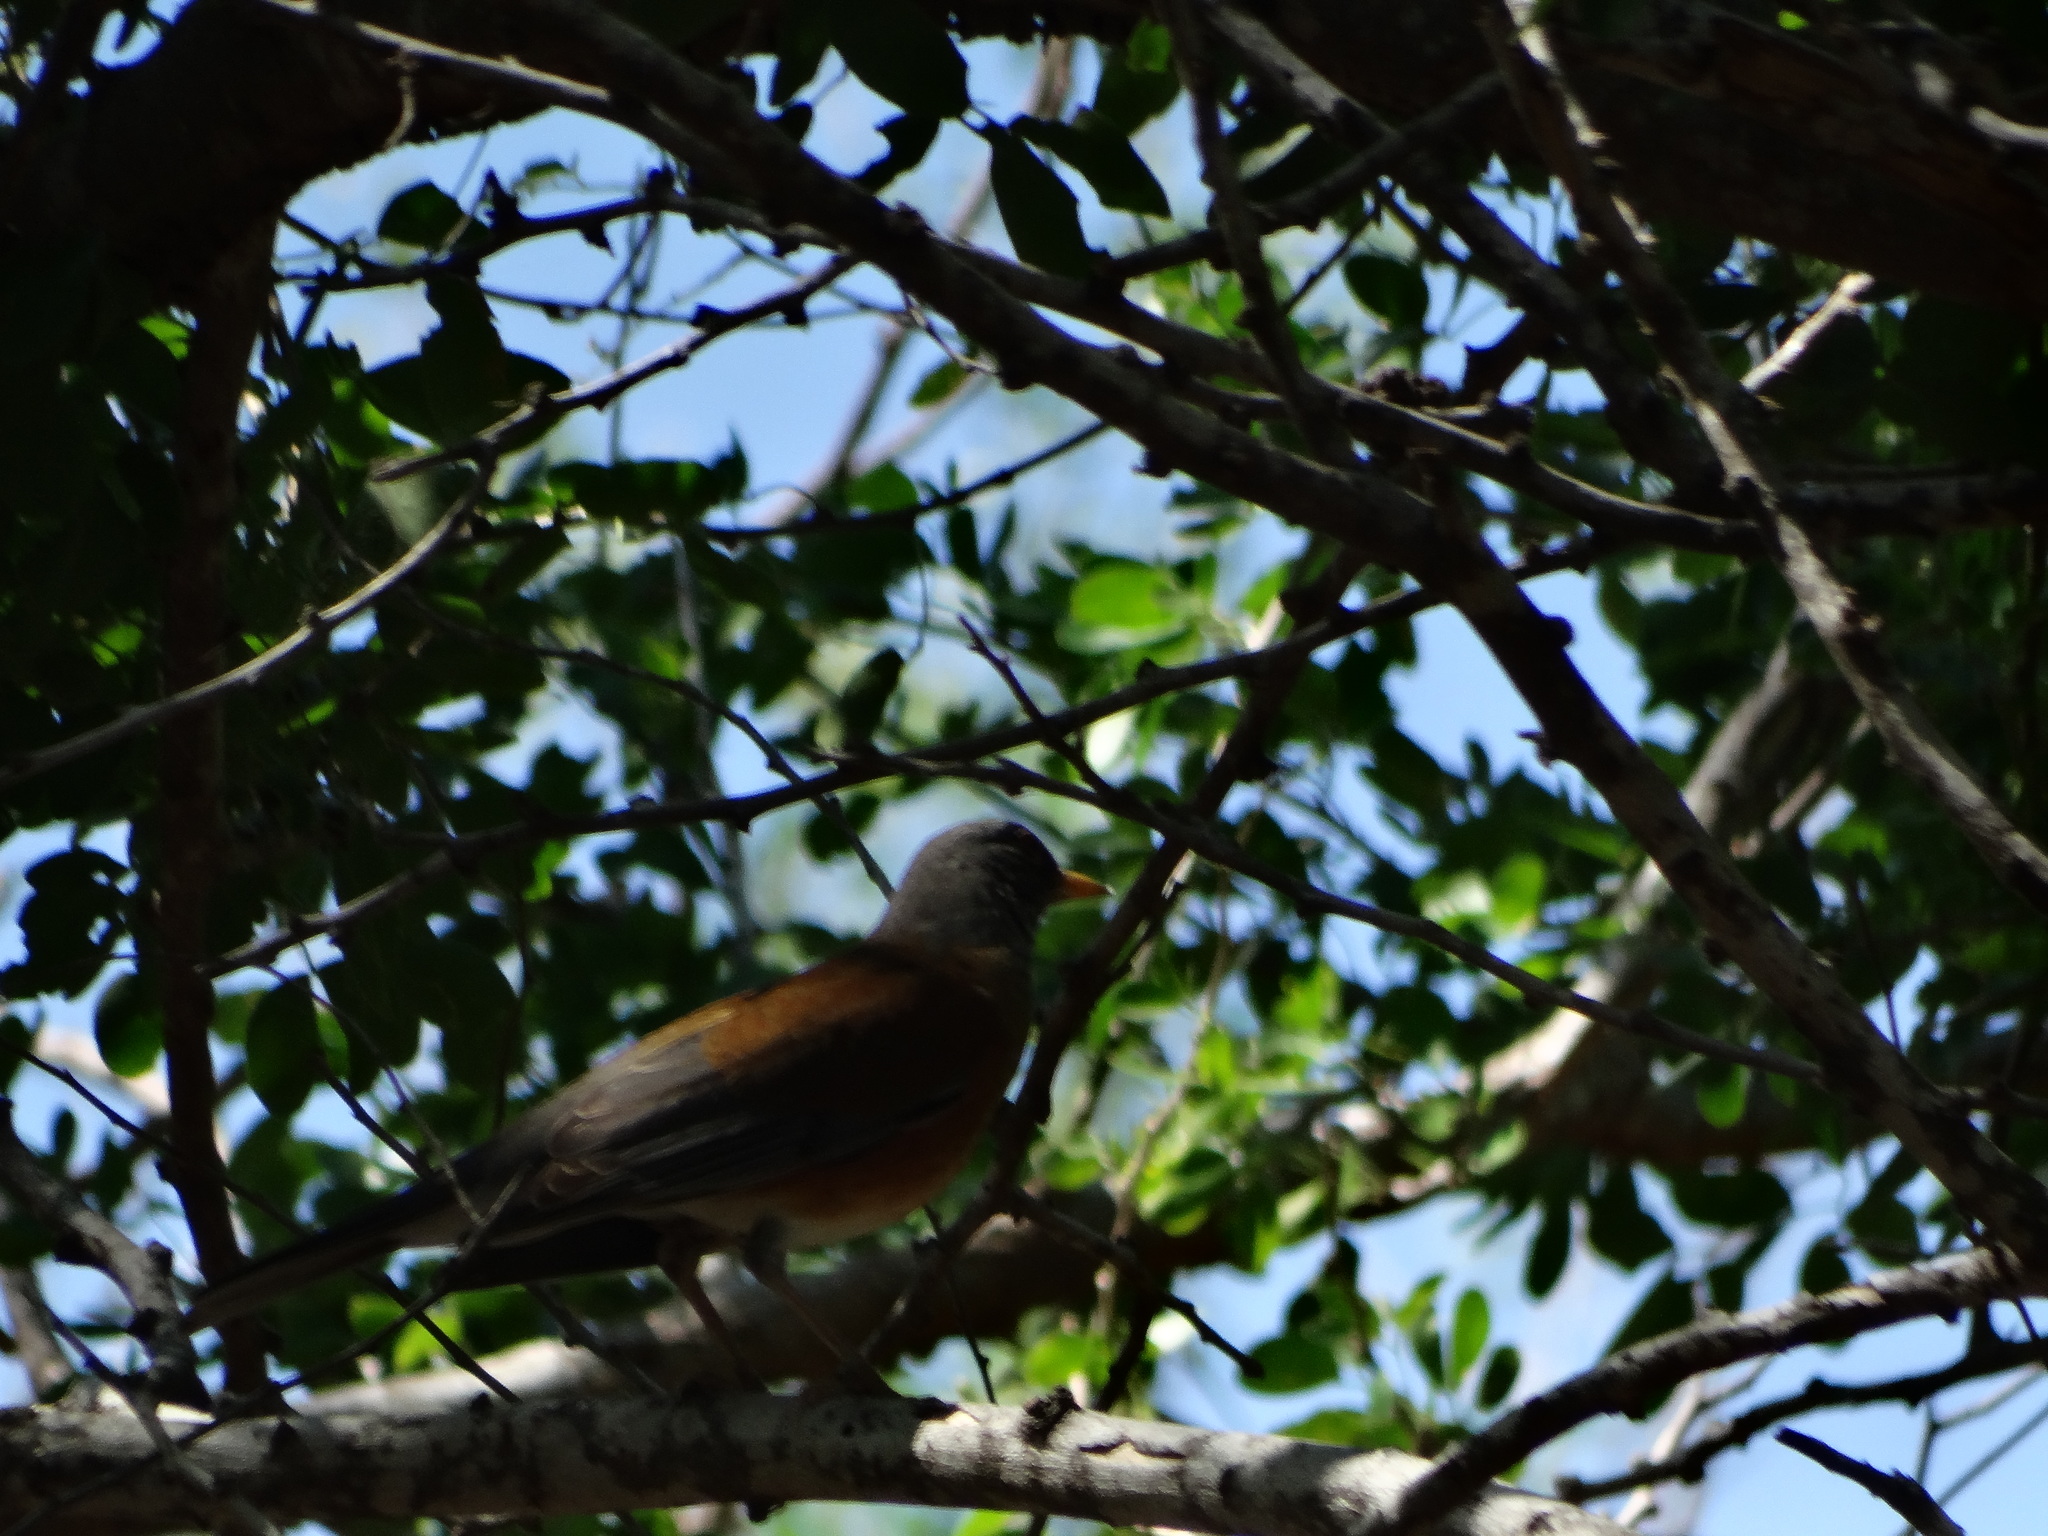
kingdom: Animalia
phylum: Chordata
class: Aves
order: Passeriformes
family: Turdidae
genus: Turdus
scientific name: Turdus rufopalliatus
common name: Rufous-backed robin
